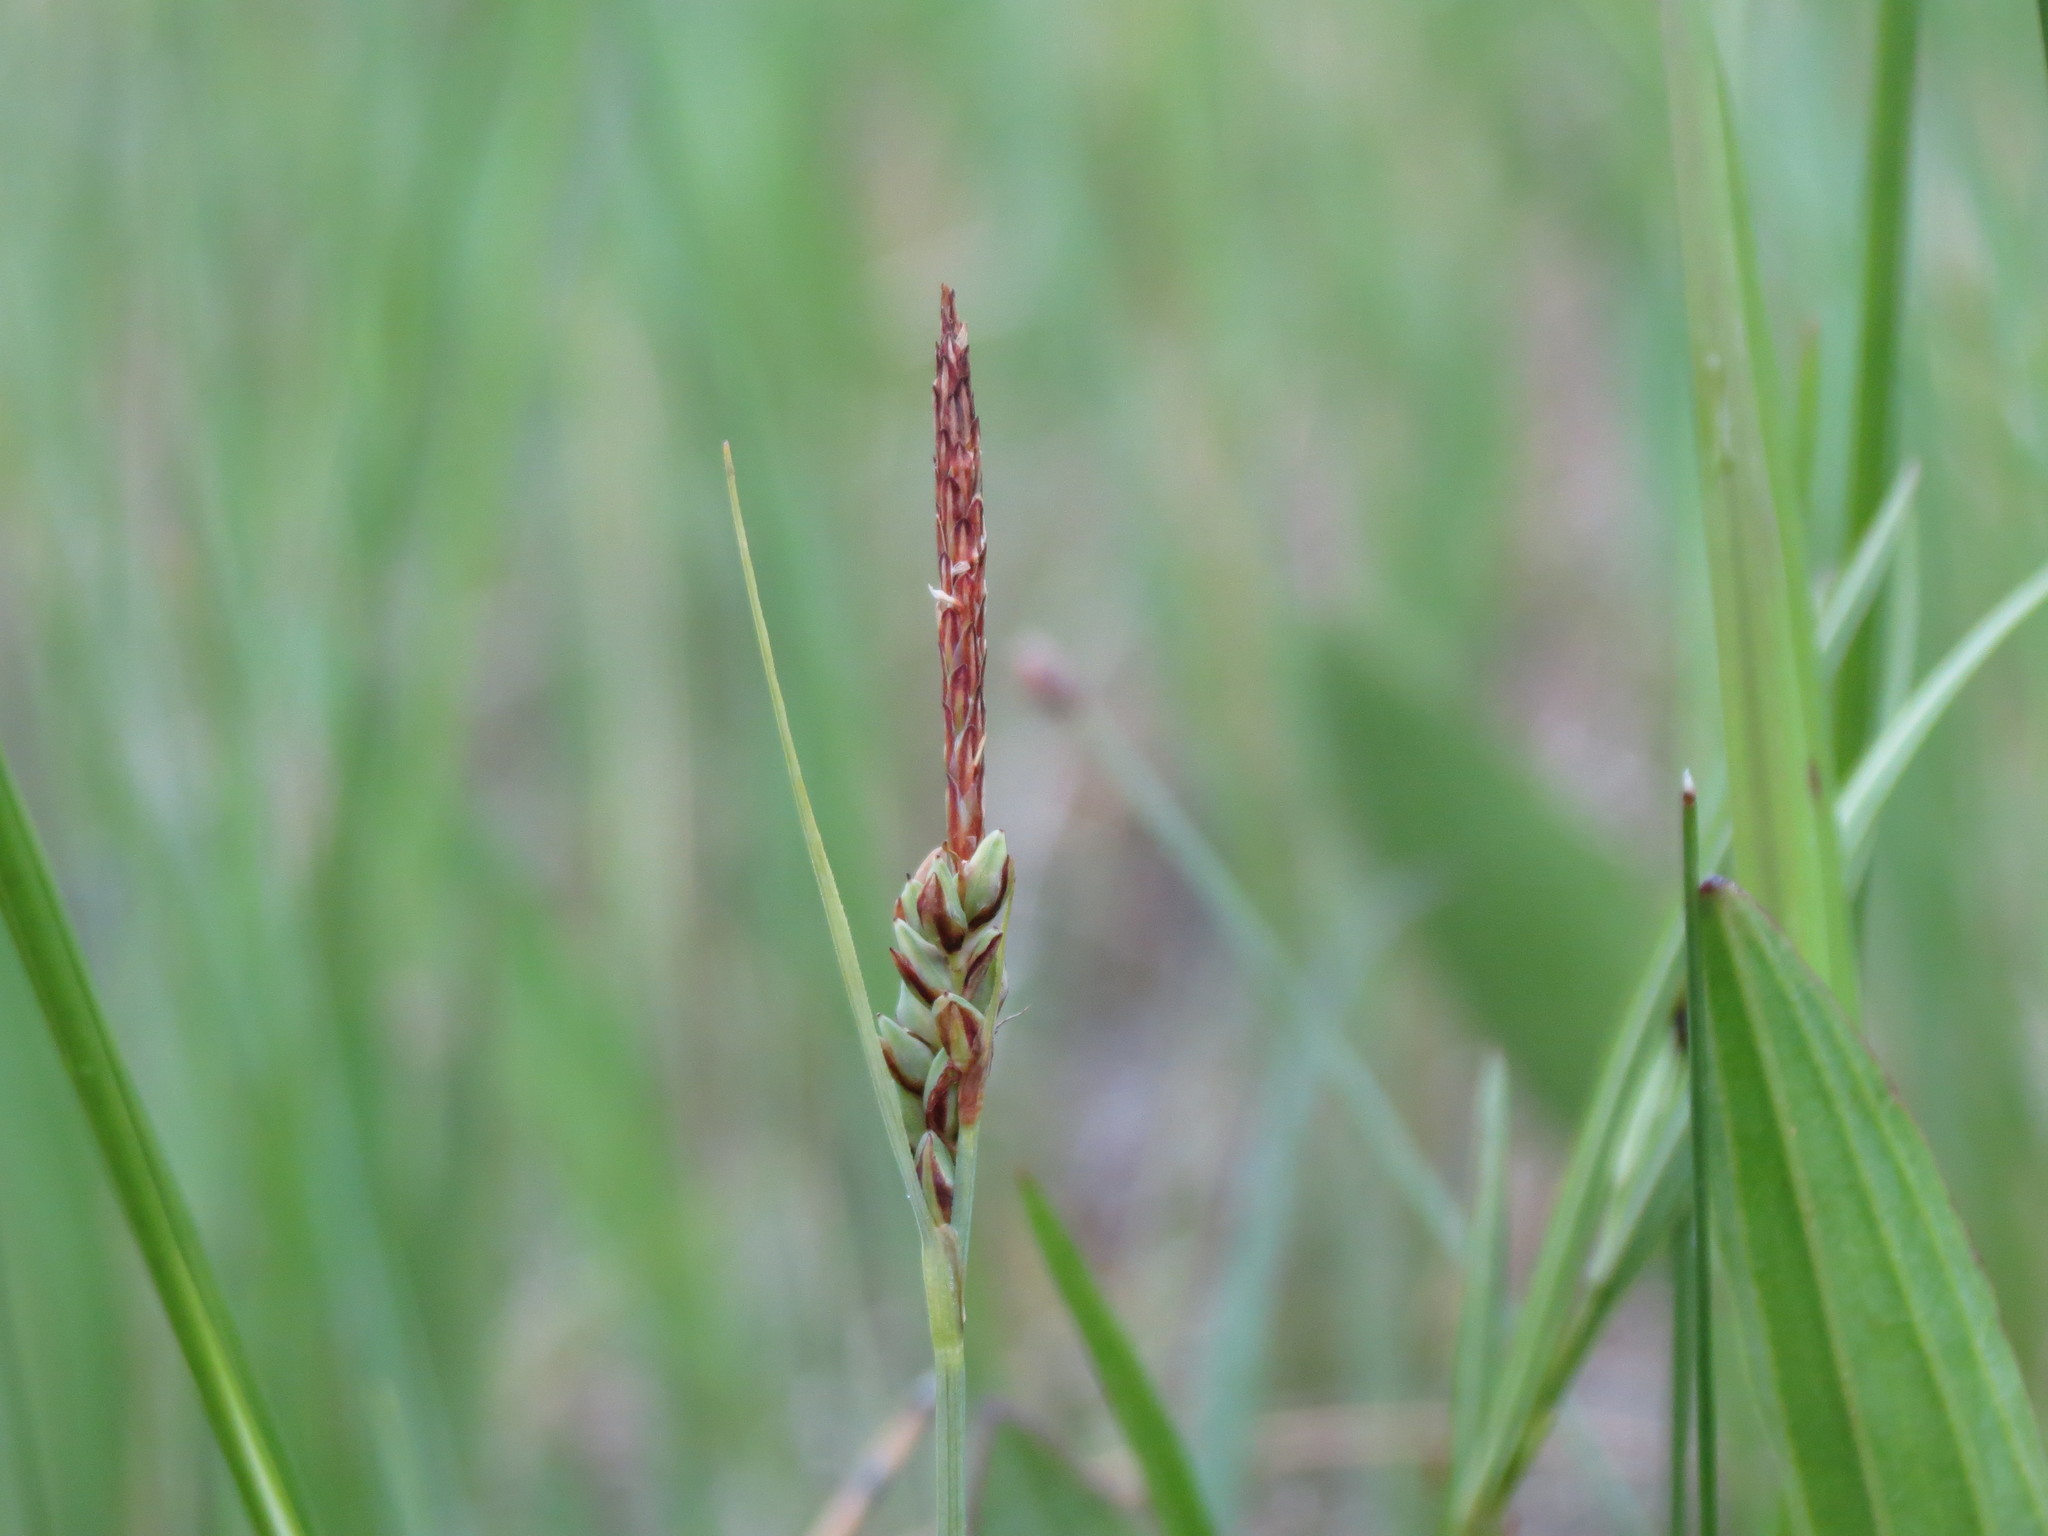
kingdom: Plantae
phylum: Tracheophyta
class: Liliopsida
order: Poales
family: Cyperaceae
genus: Carex
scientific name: Carex livida
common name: Livid sedge
